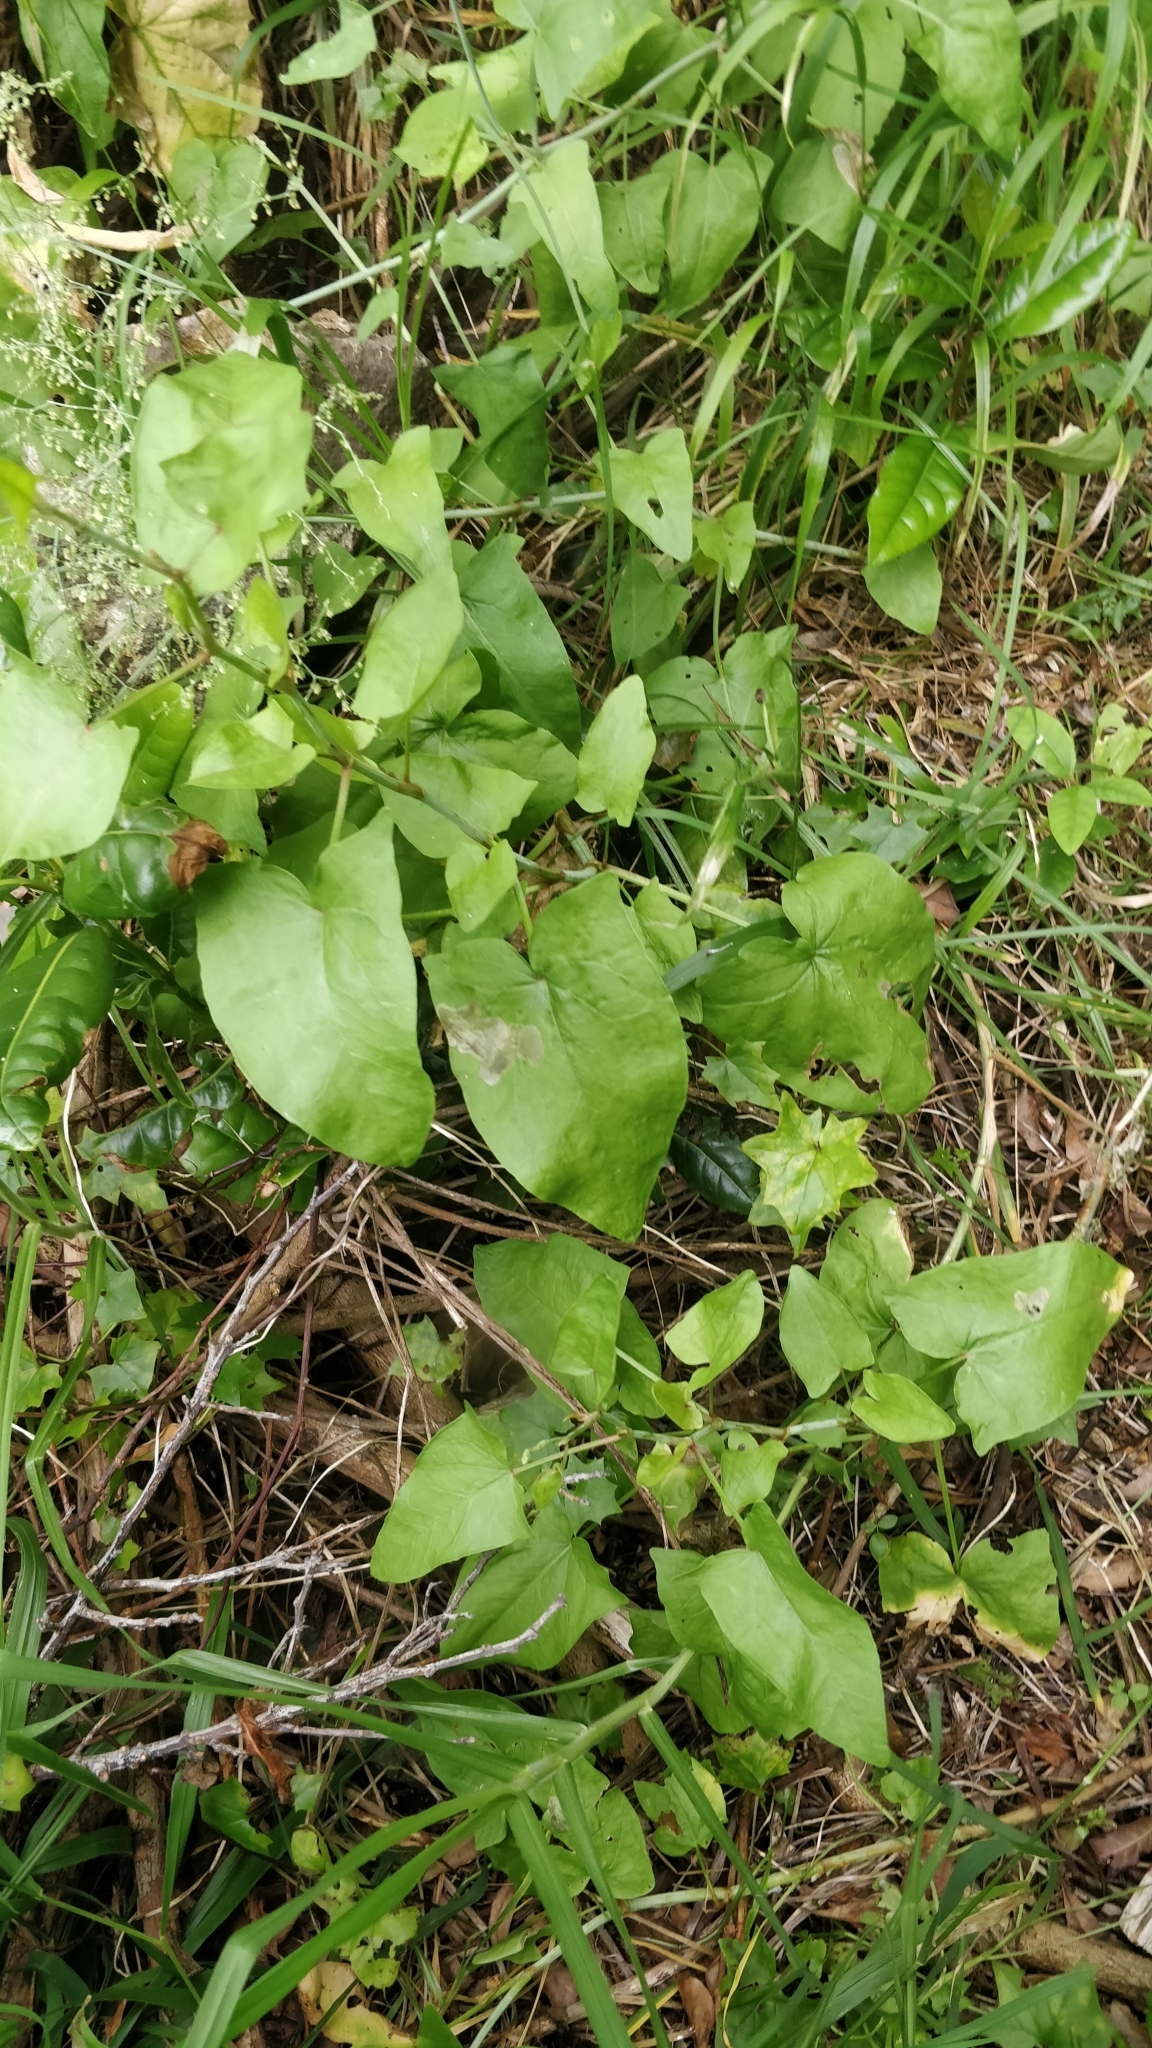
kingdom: Plantae
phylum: Tracheophyta
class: Magnoliopsida
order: Caryophyllales
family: Polygonaceae
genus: Rumex
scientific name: Rumex maderensis
